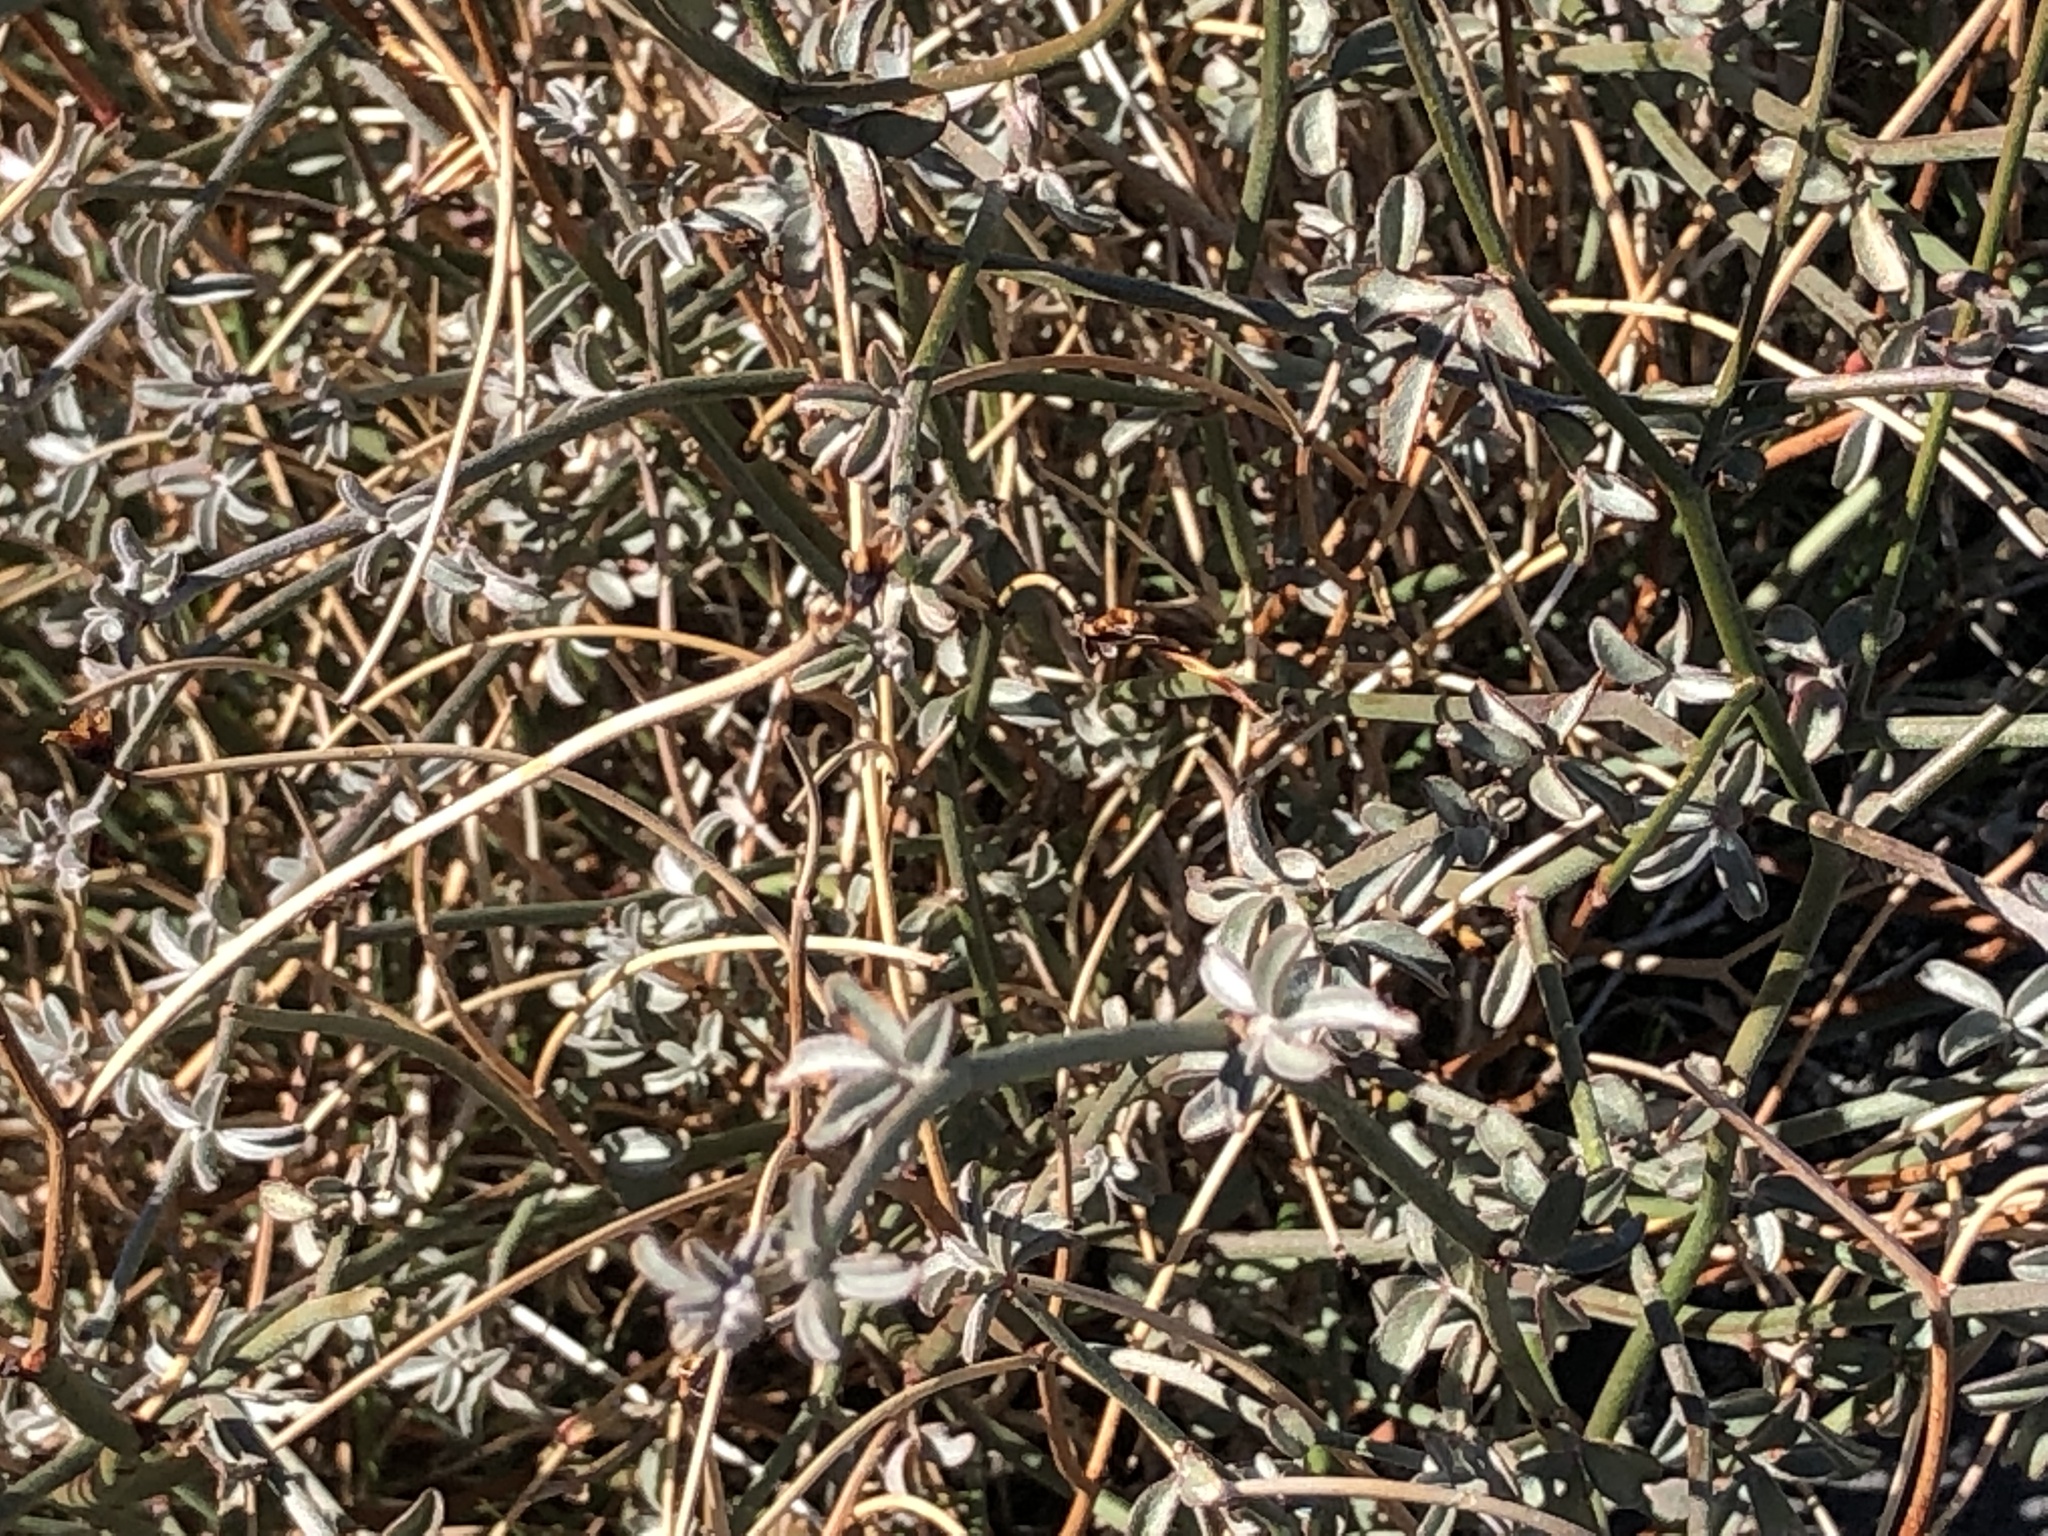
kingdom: Plantae
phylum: Tracheophyta
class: Magnoliopsida
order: Fabales
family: Fabaceae
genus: Acmispon
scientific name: Acmispon rigidus
